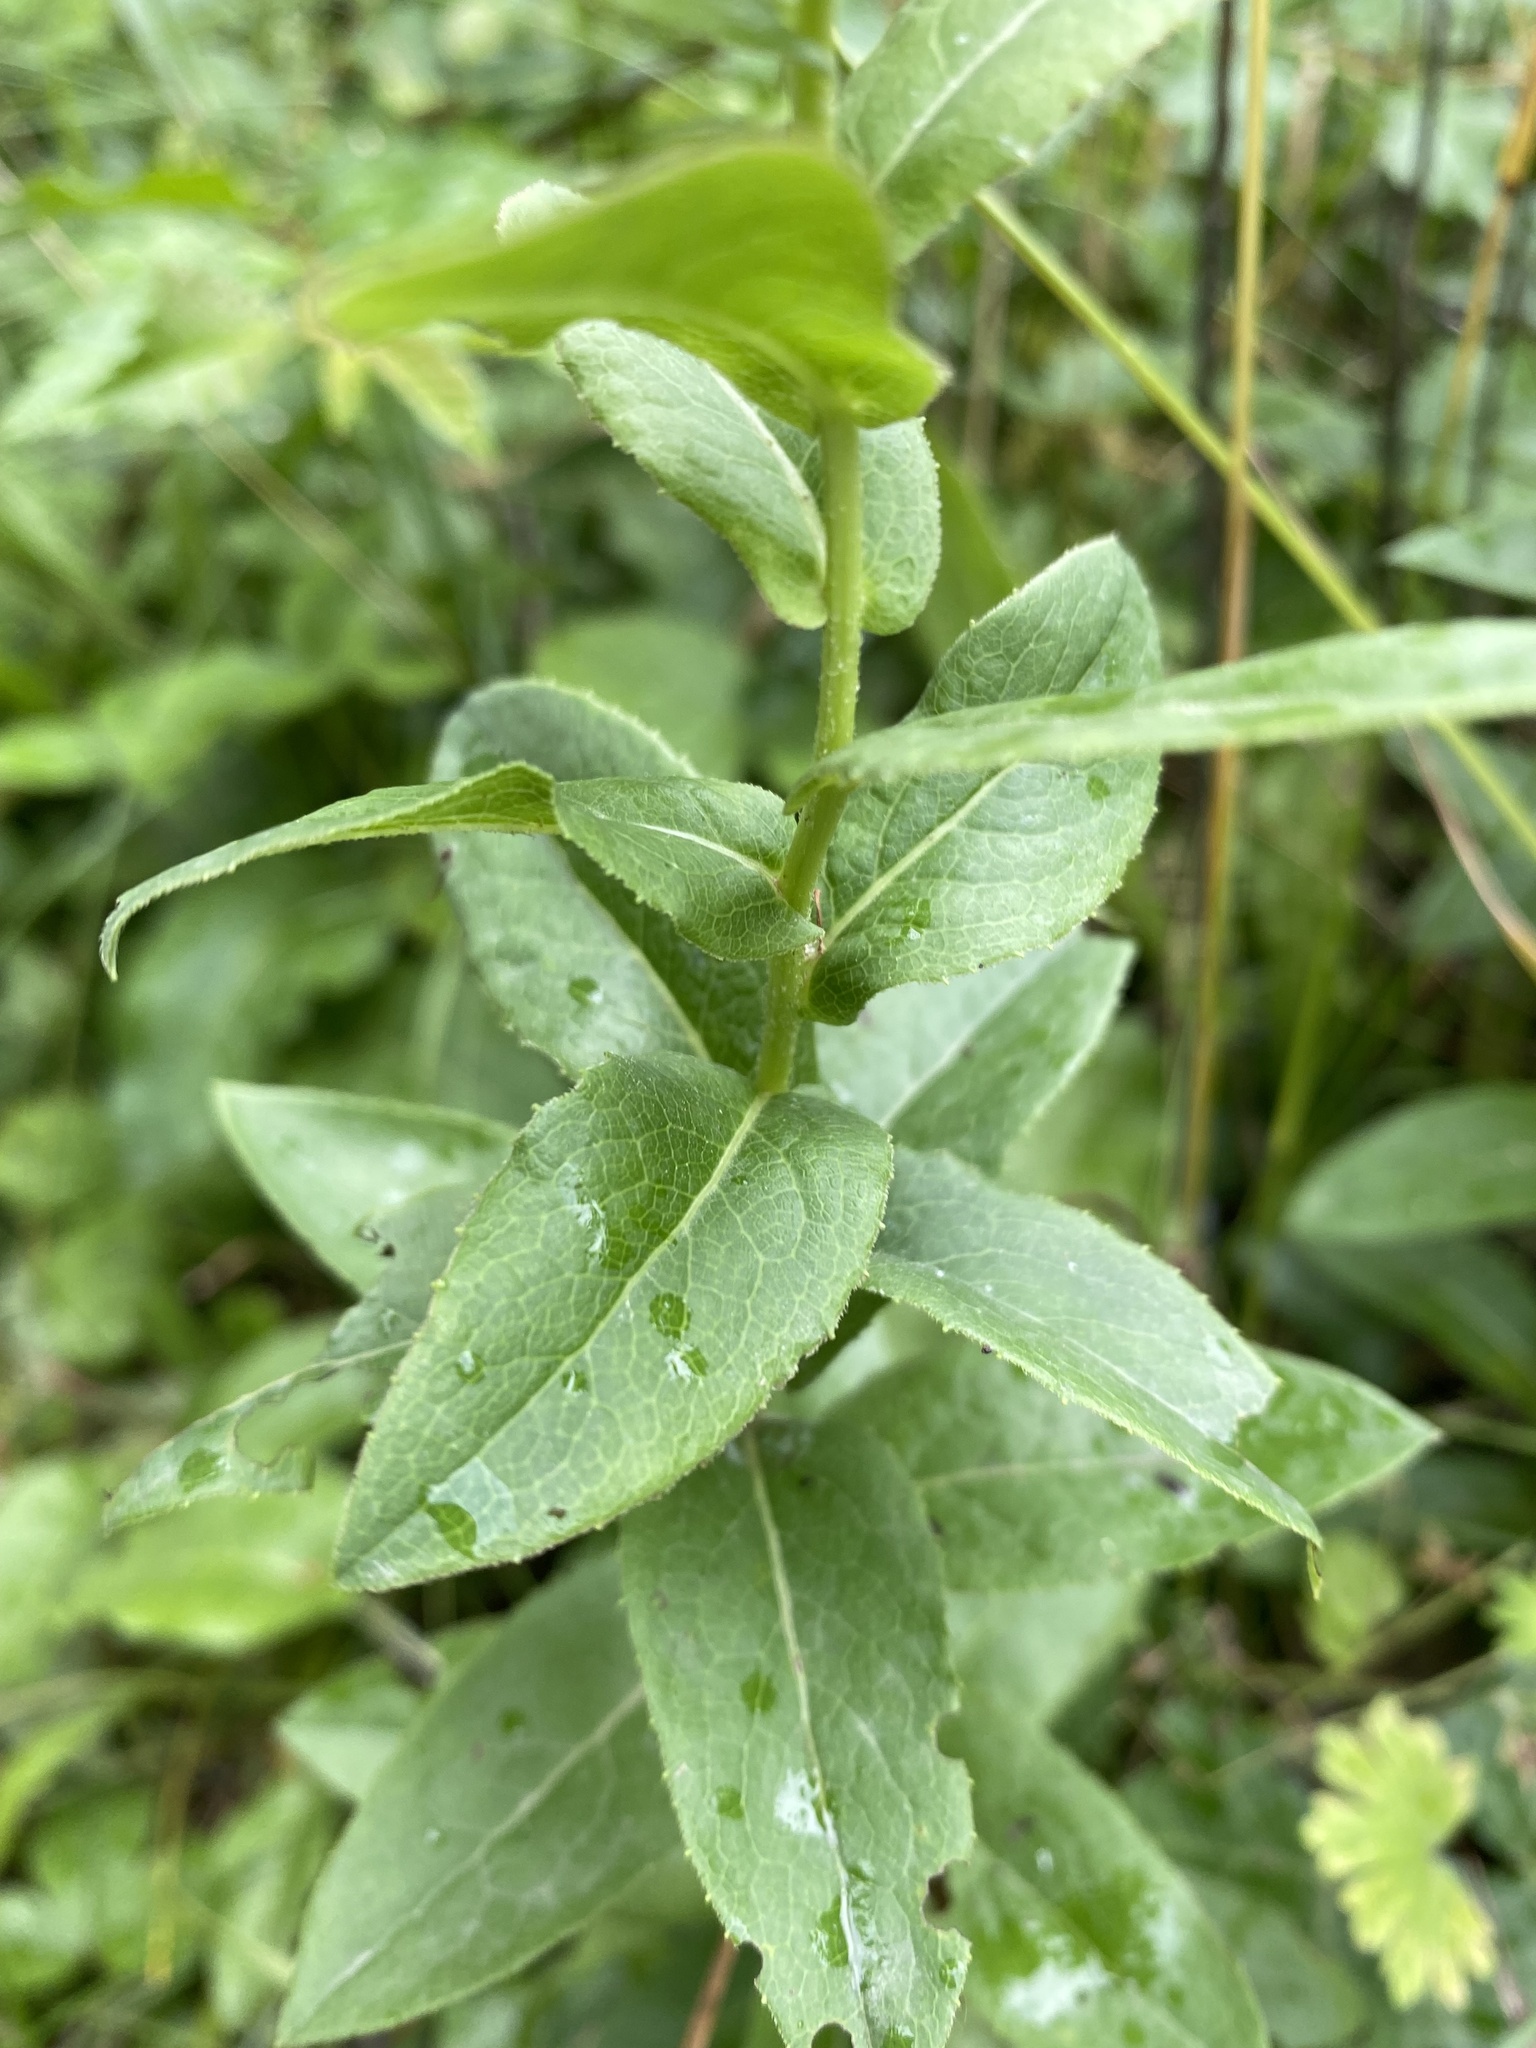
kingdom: Plantae
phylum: Tracheophyta
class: Magnoliopsida
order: Asterales
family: Asteraceae
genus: Pentanema
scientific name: Pentanema asperum
